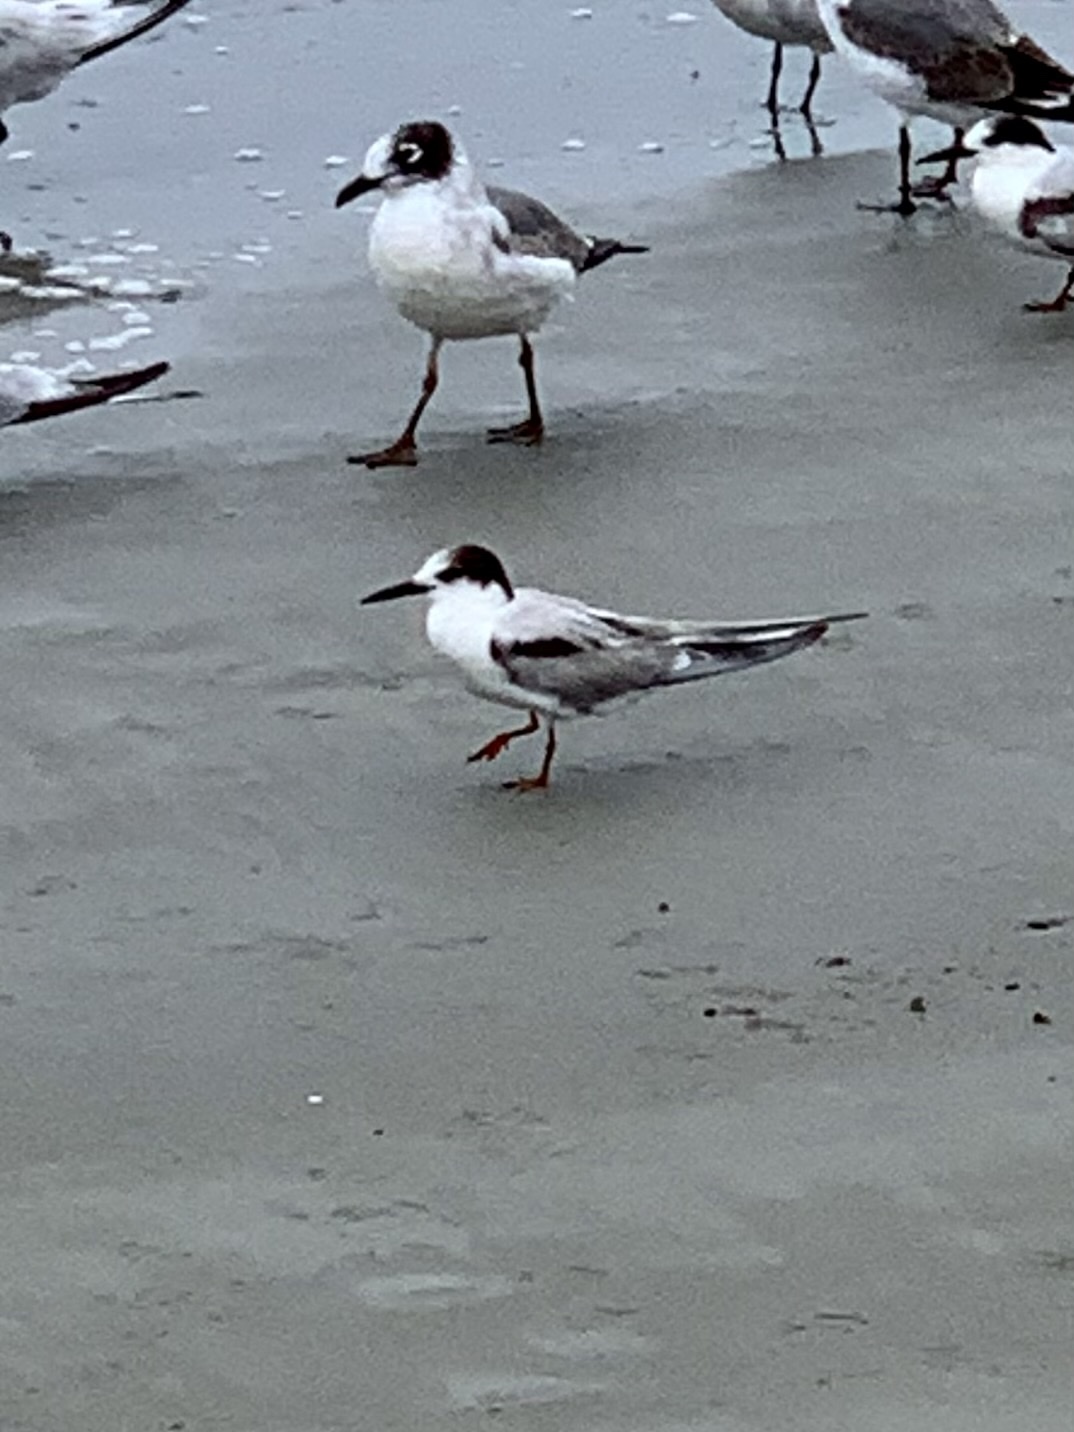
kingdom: Animalia
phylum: Chordata
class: Aves
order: Charadriiformes
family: Laridae
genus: Sterna
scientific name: Sterna hirundo
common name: Common tern
